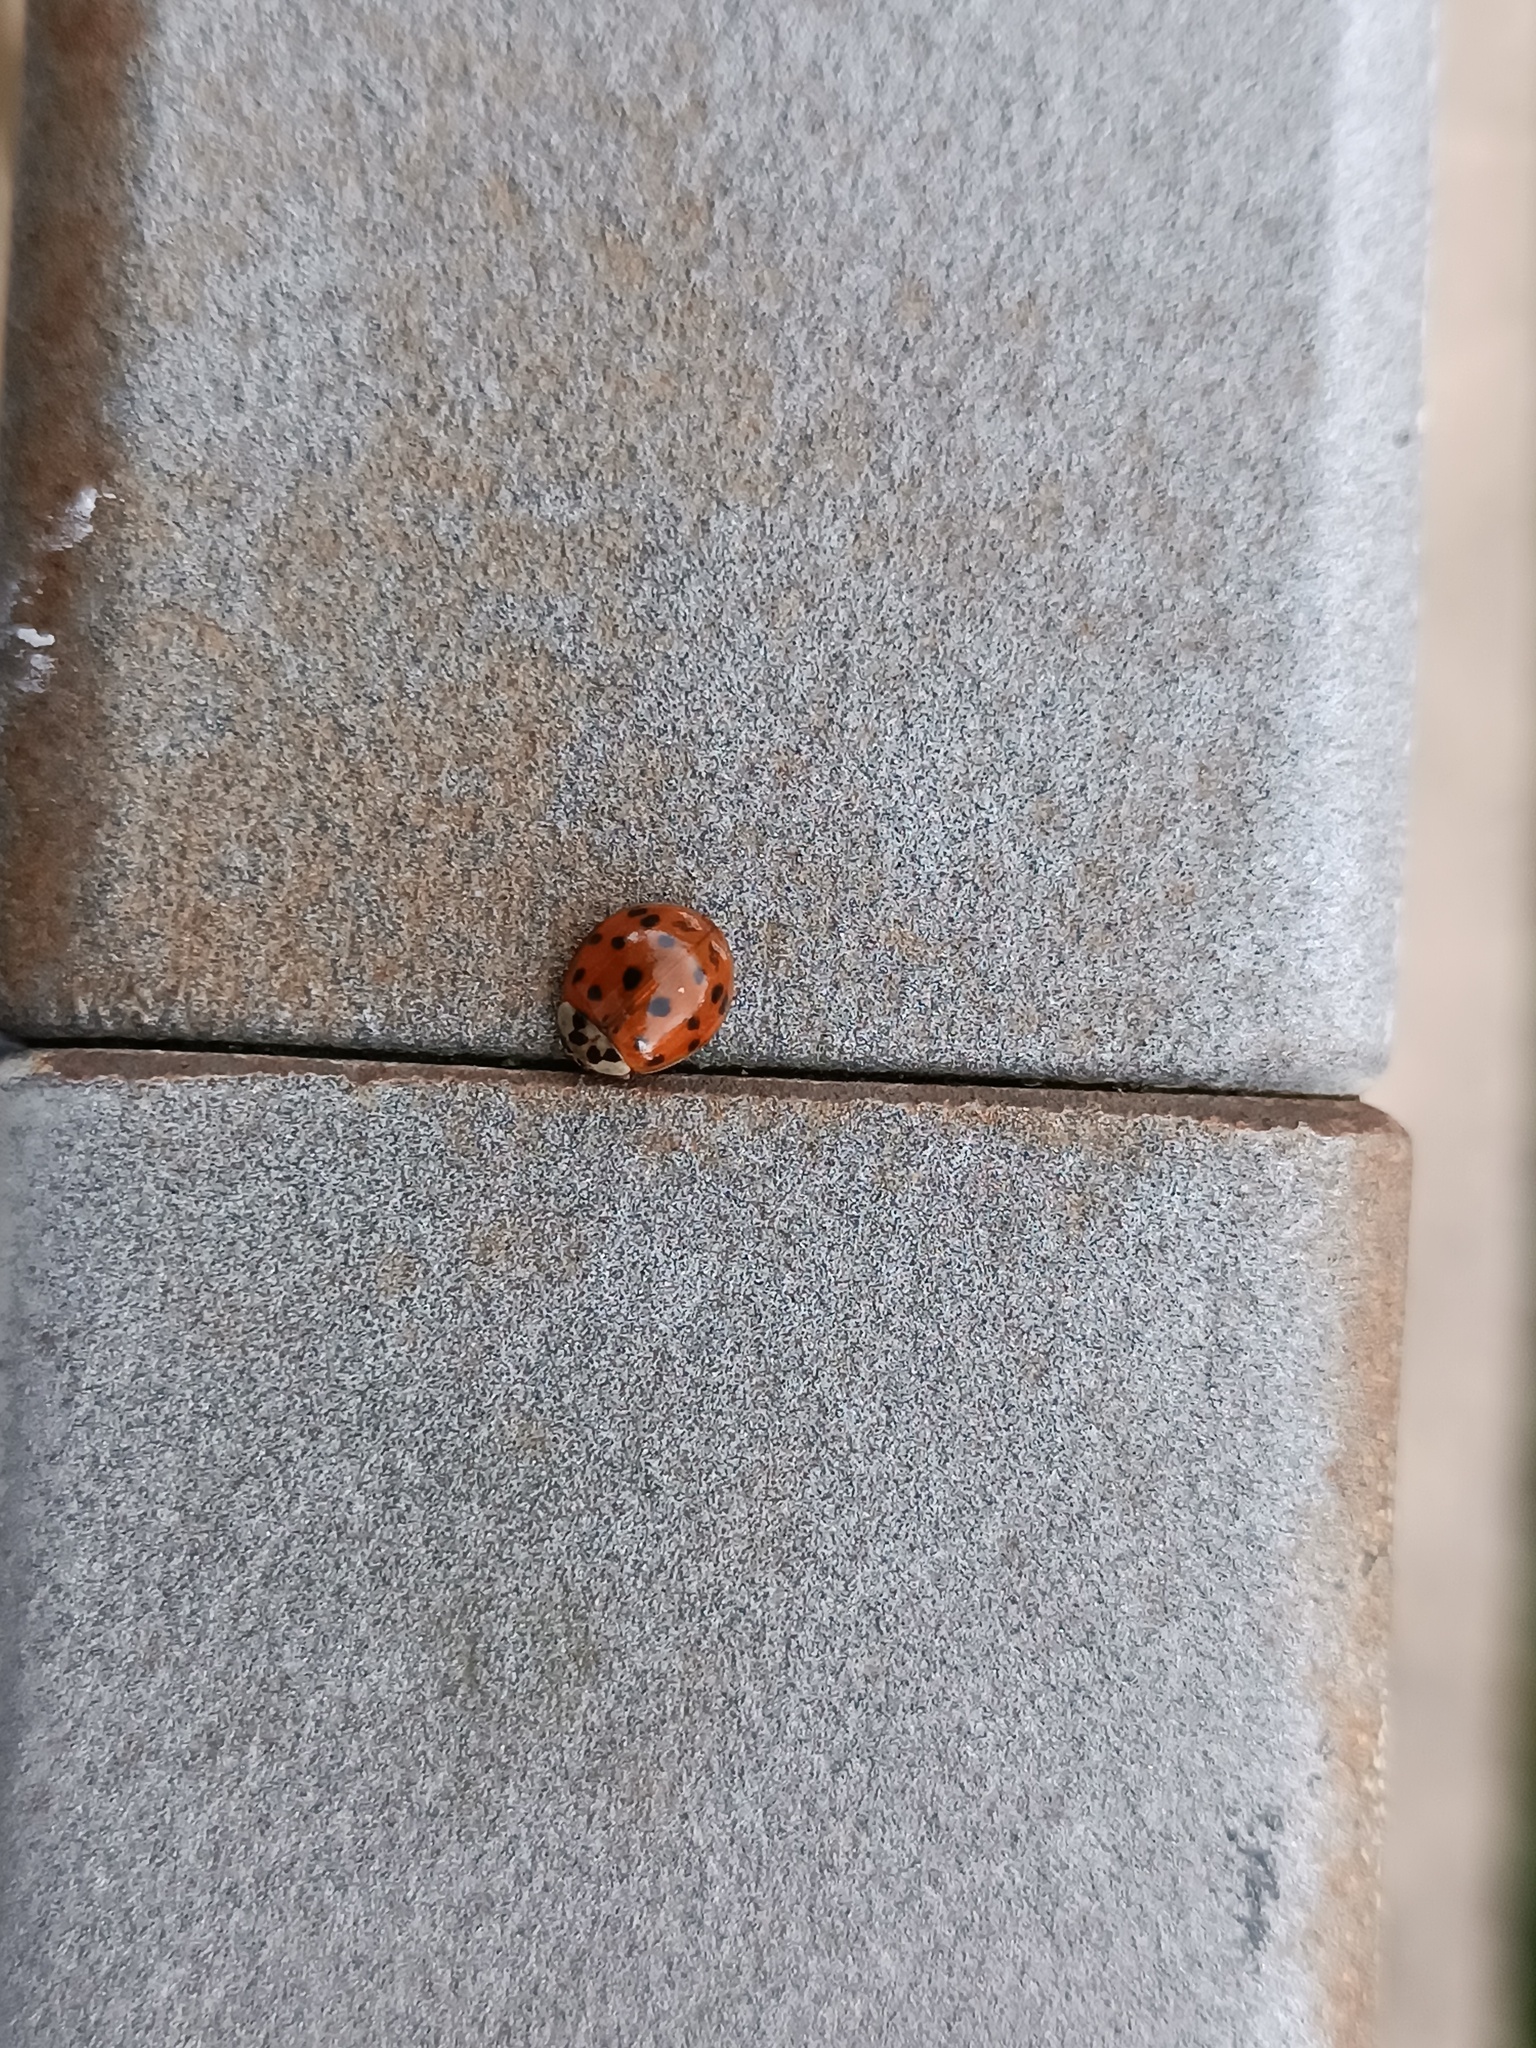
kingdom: Animalia
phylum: Arthropoda
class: Insecta
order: Coleoptera
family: Coccinellidae
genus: Harmonia
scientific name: Harmonia axyridis
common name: Harlequin ladybird
